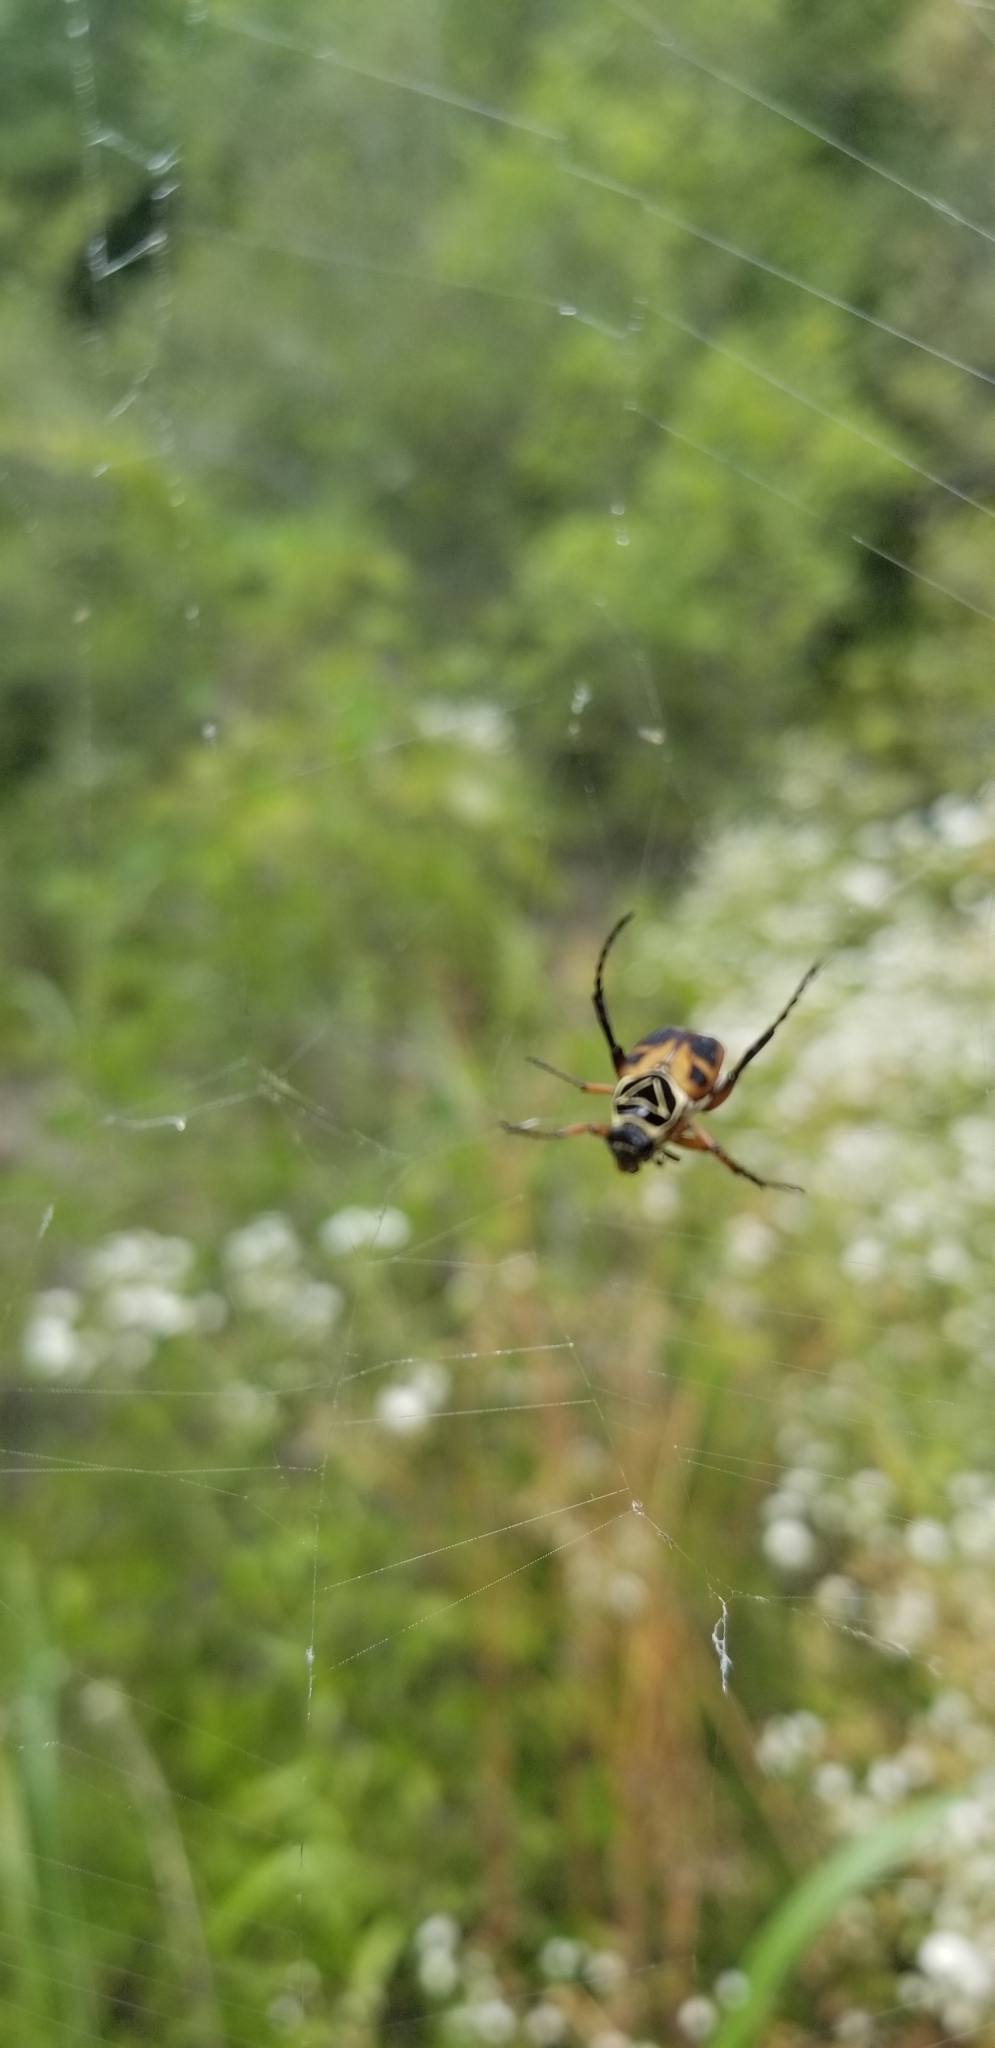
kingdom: Animalia
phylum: Arthropoda
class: Insecta
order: Coleoptera
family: Scarabaeidae
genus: Trigonopeltastes
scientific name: Trigonopeltastes delta
